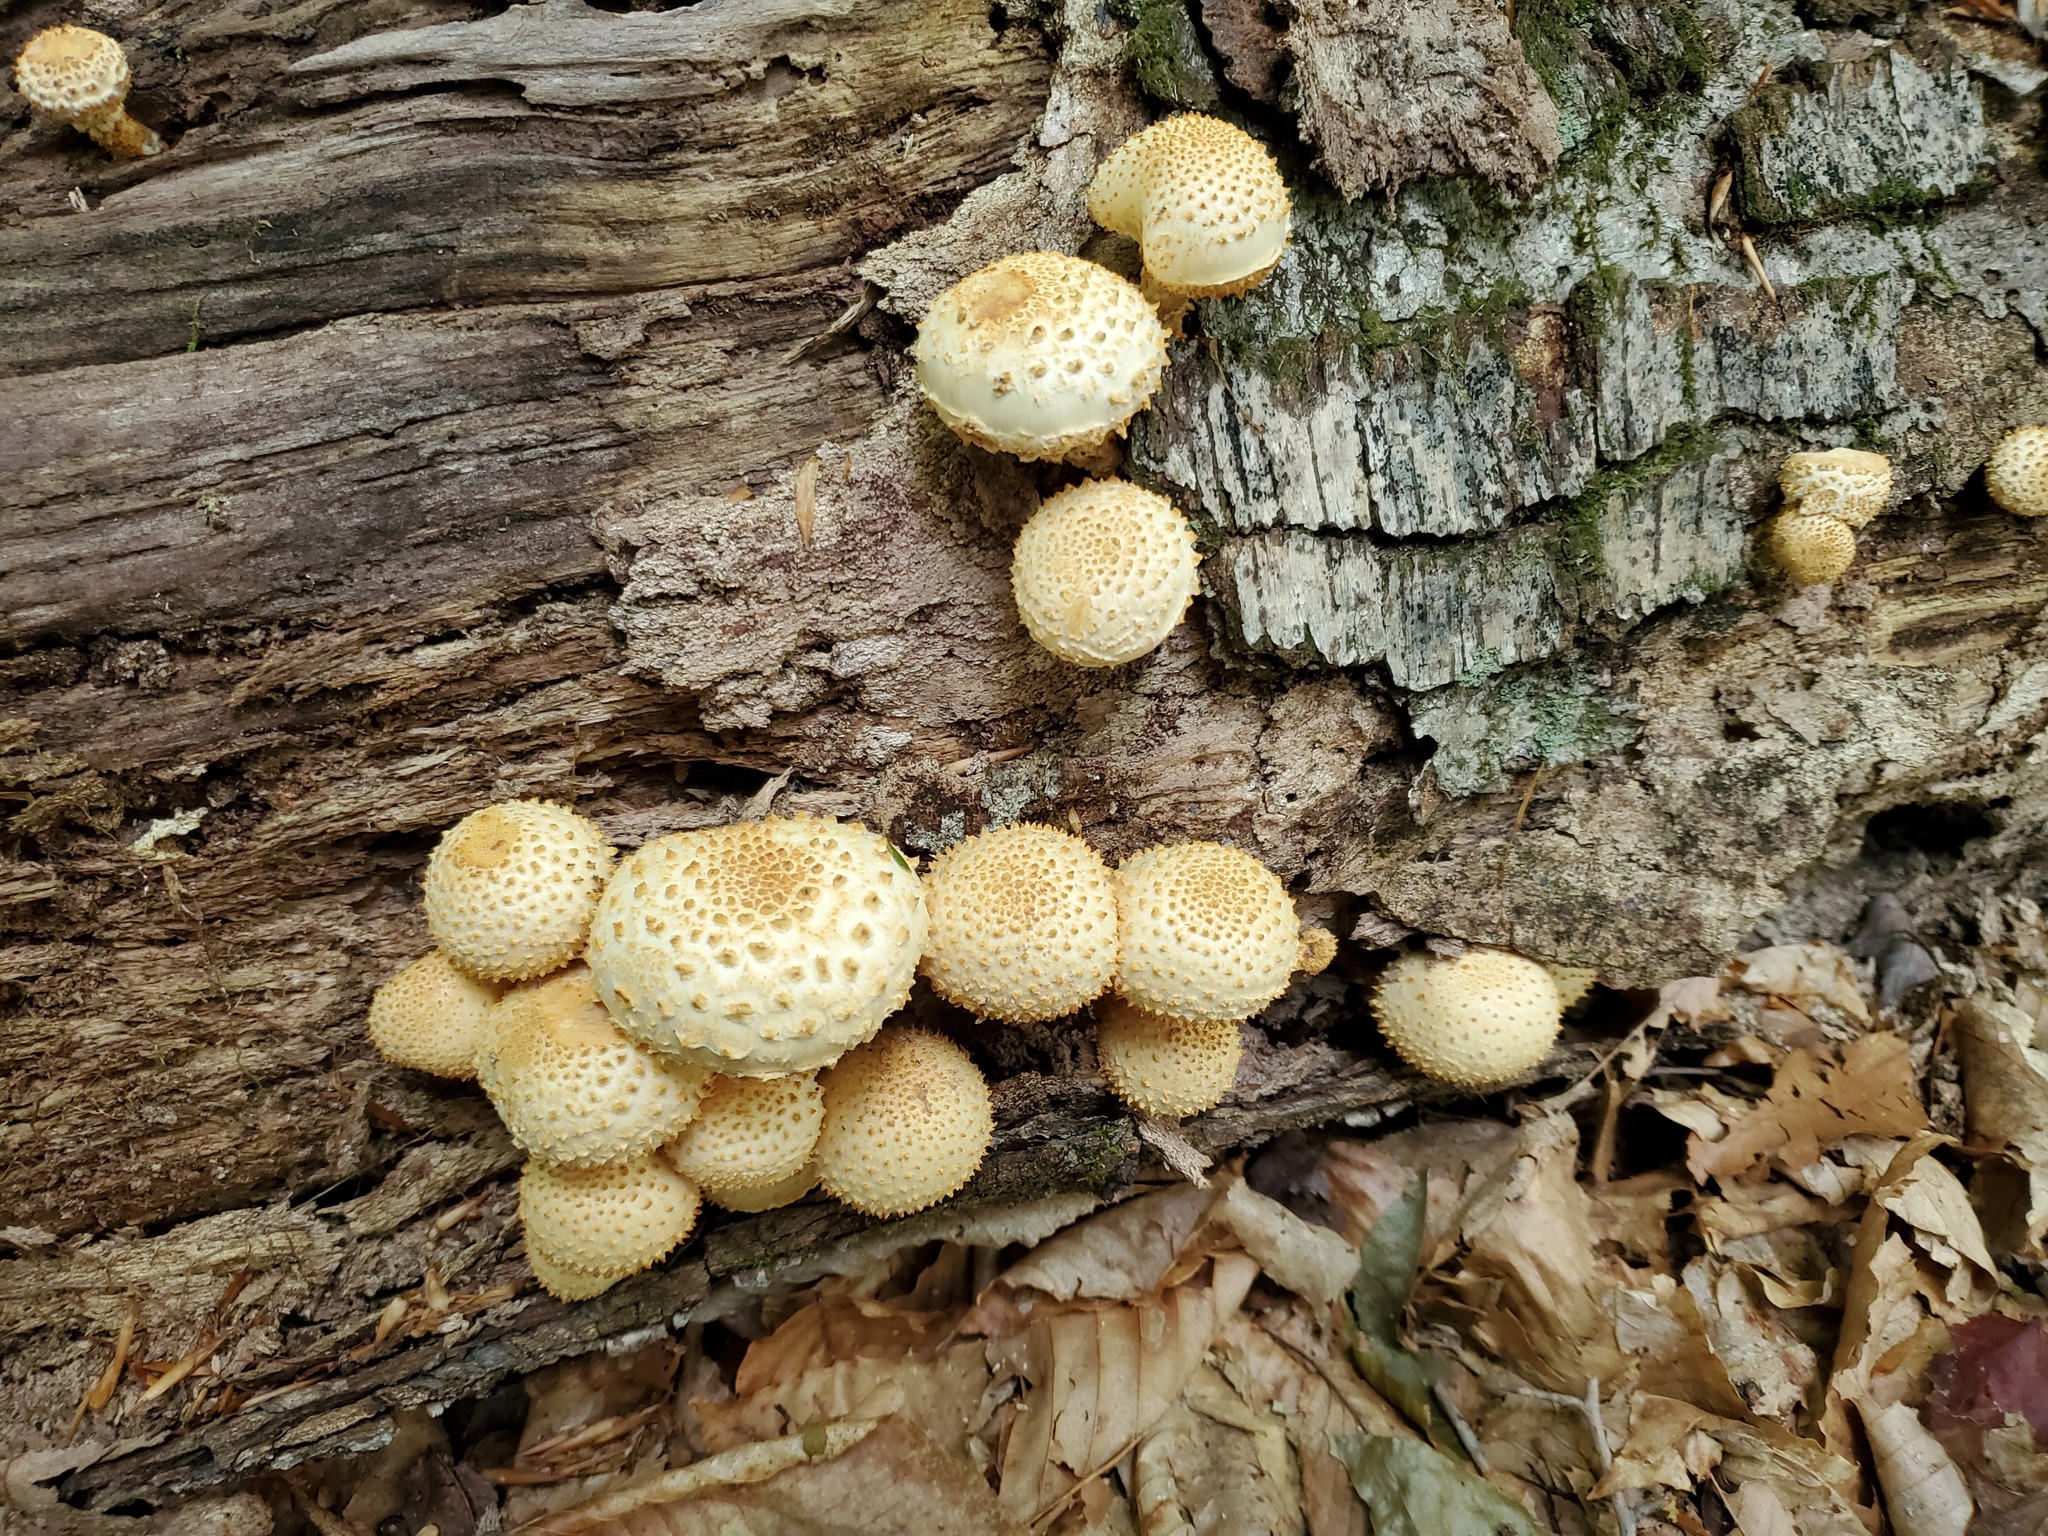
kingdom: Fungi
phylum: Basidiomycota
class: Agaricomycetes
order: Agaricales
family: Strophariaceae
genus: Pholiota
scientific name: Pholiota squarrosoides
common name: Sharp-scaly pholiota
